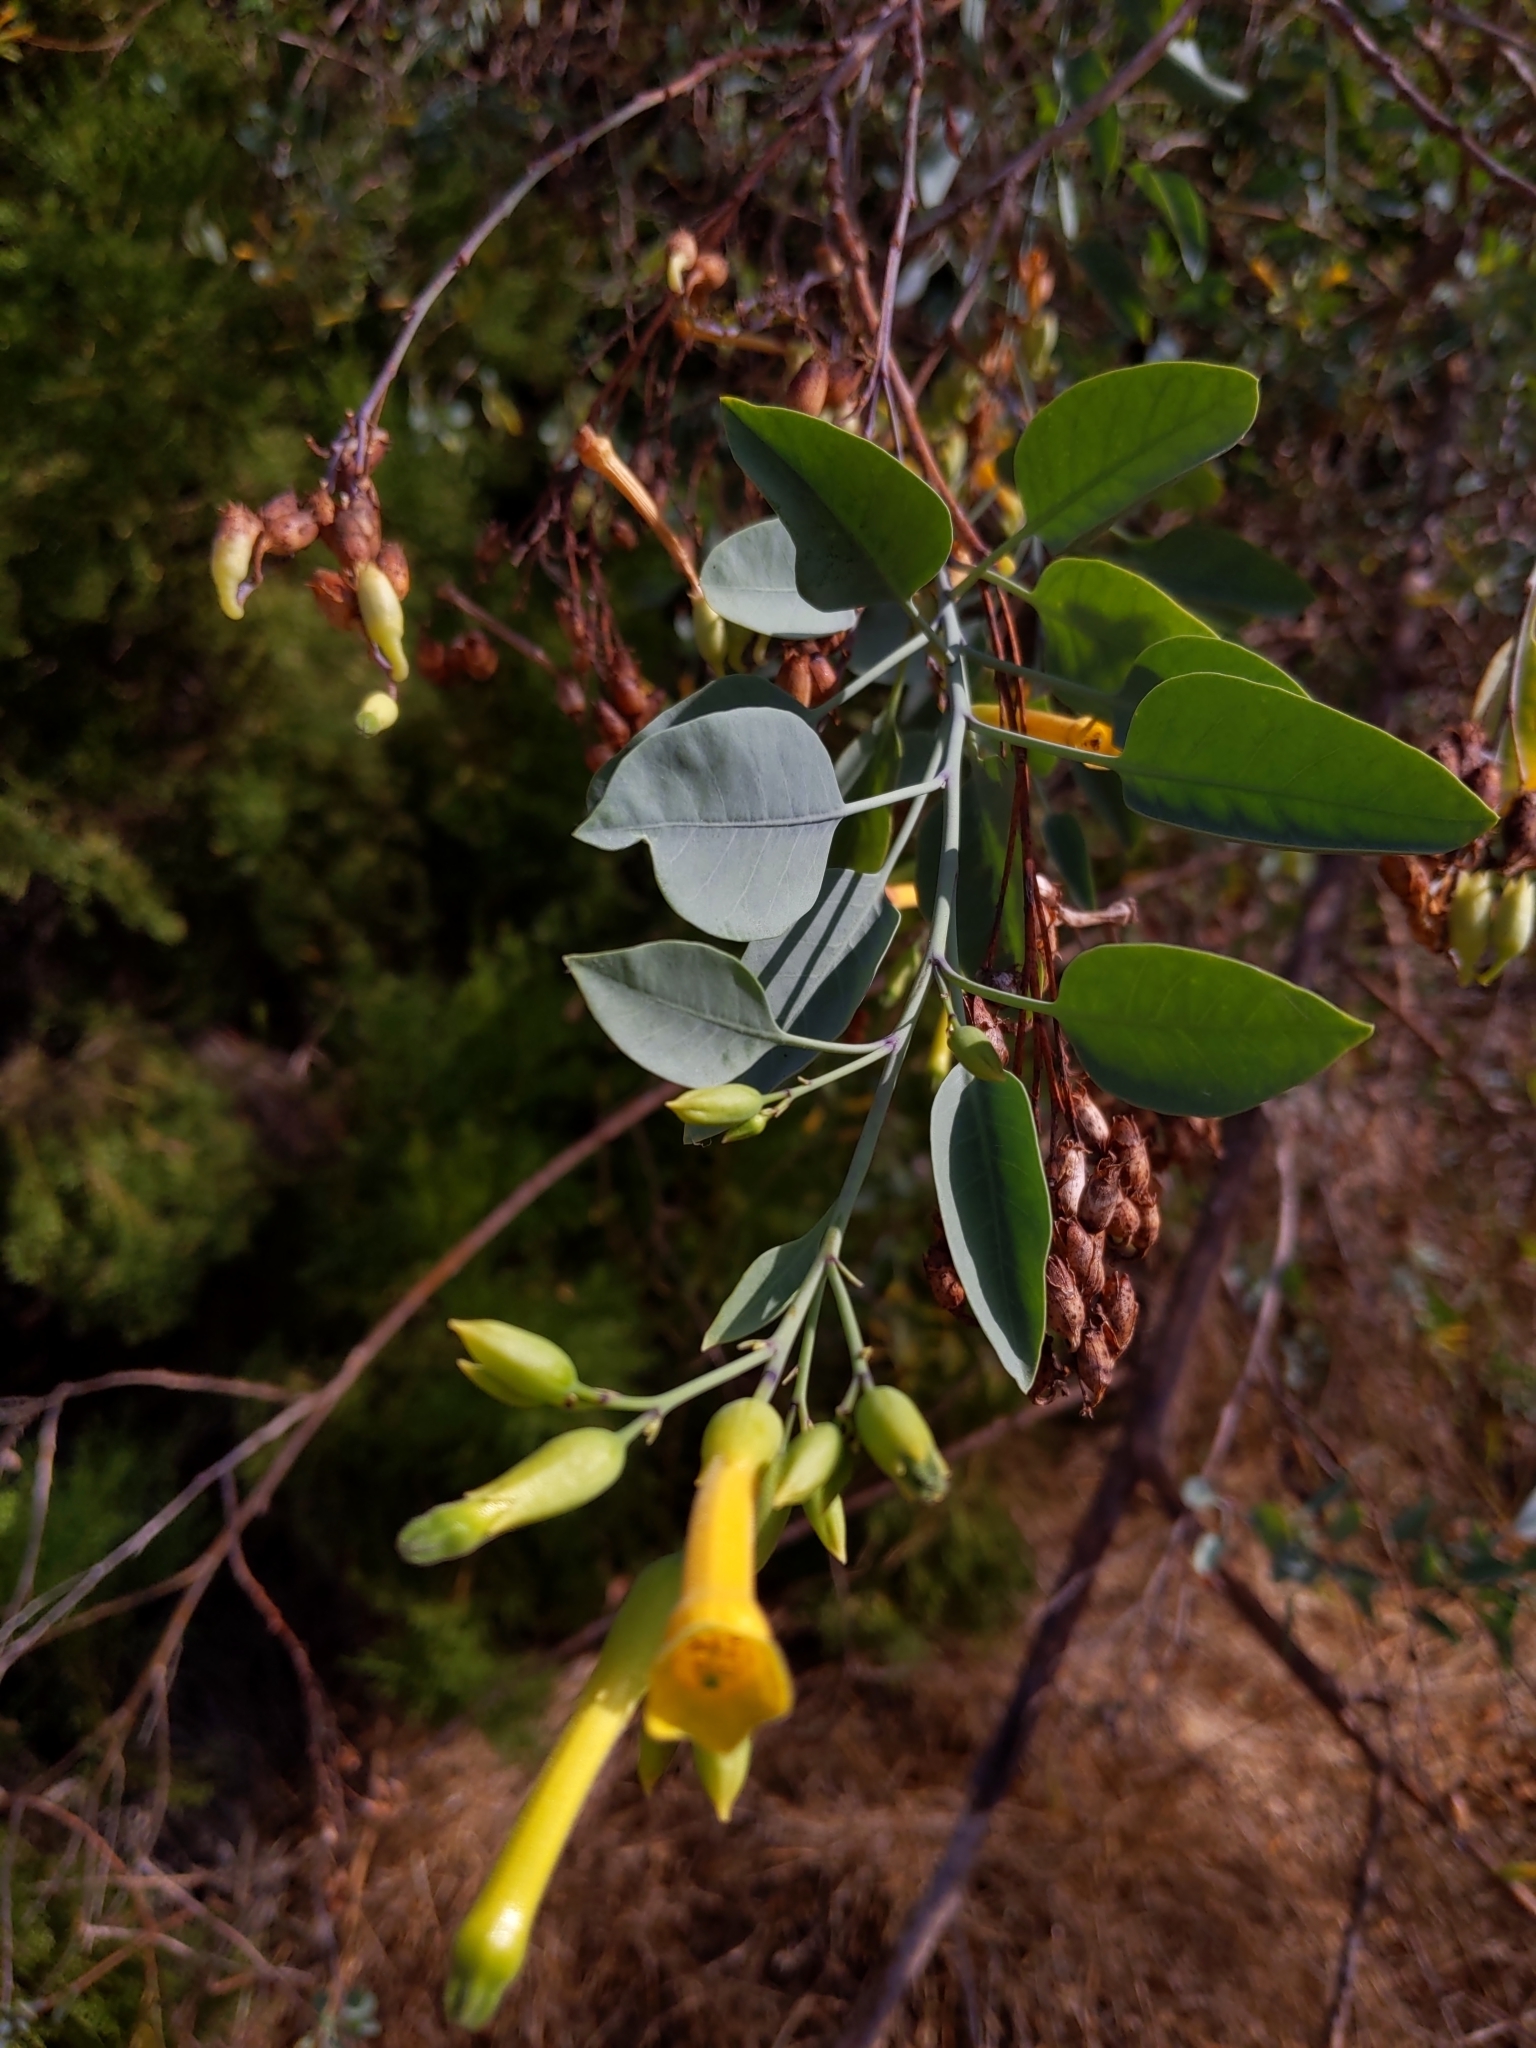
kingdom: Plantae
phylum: Tracheophyta
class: Magnoliopsida
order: Solanales
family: Solanaceae
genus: Nicotiana
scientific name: Nicotiana glauca
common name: Tree tobacco
